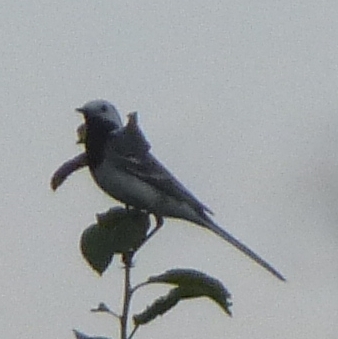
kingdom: Animalia
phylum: Chordata
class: Aves
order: Passeriformes
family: Motacillidae
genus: Motacilla
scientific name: Motacilla alba
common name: White wagtail
